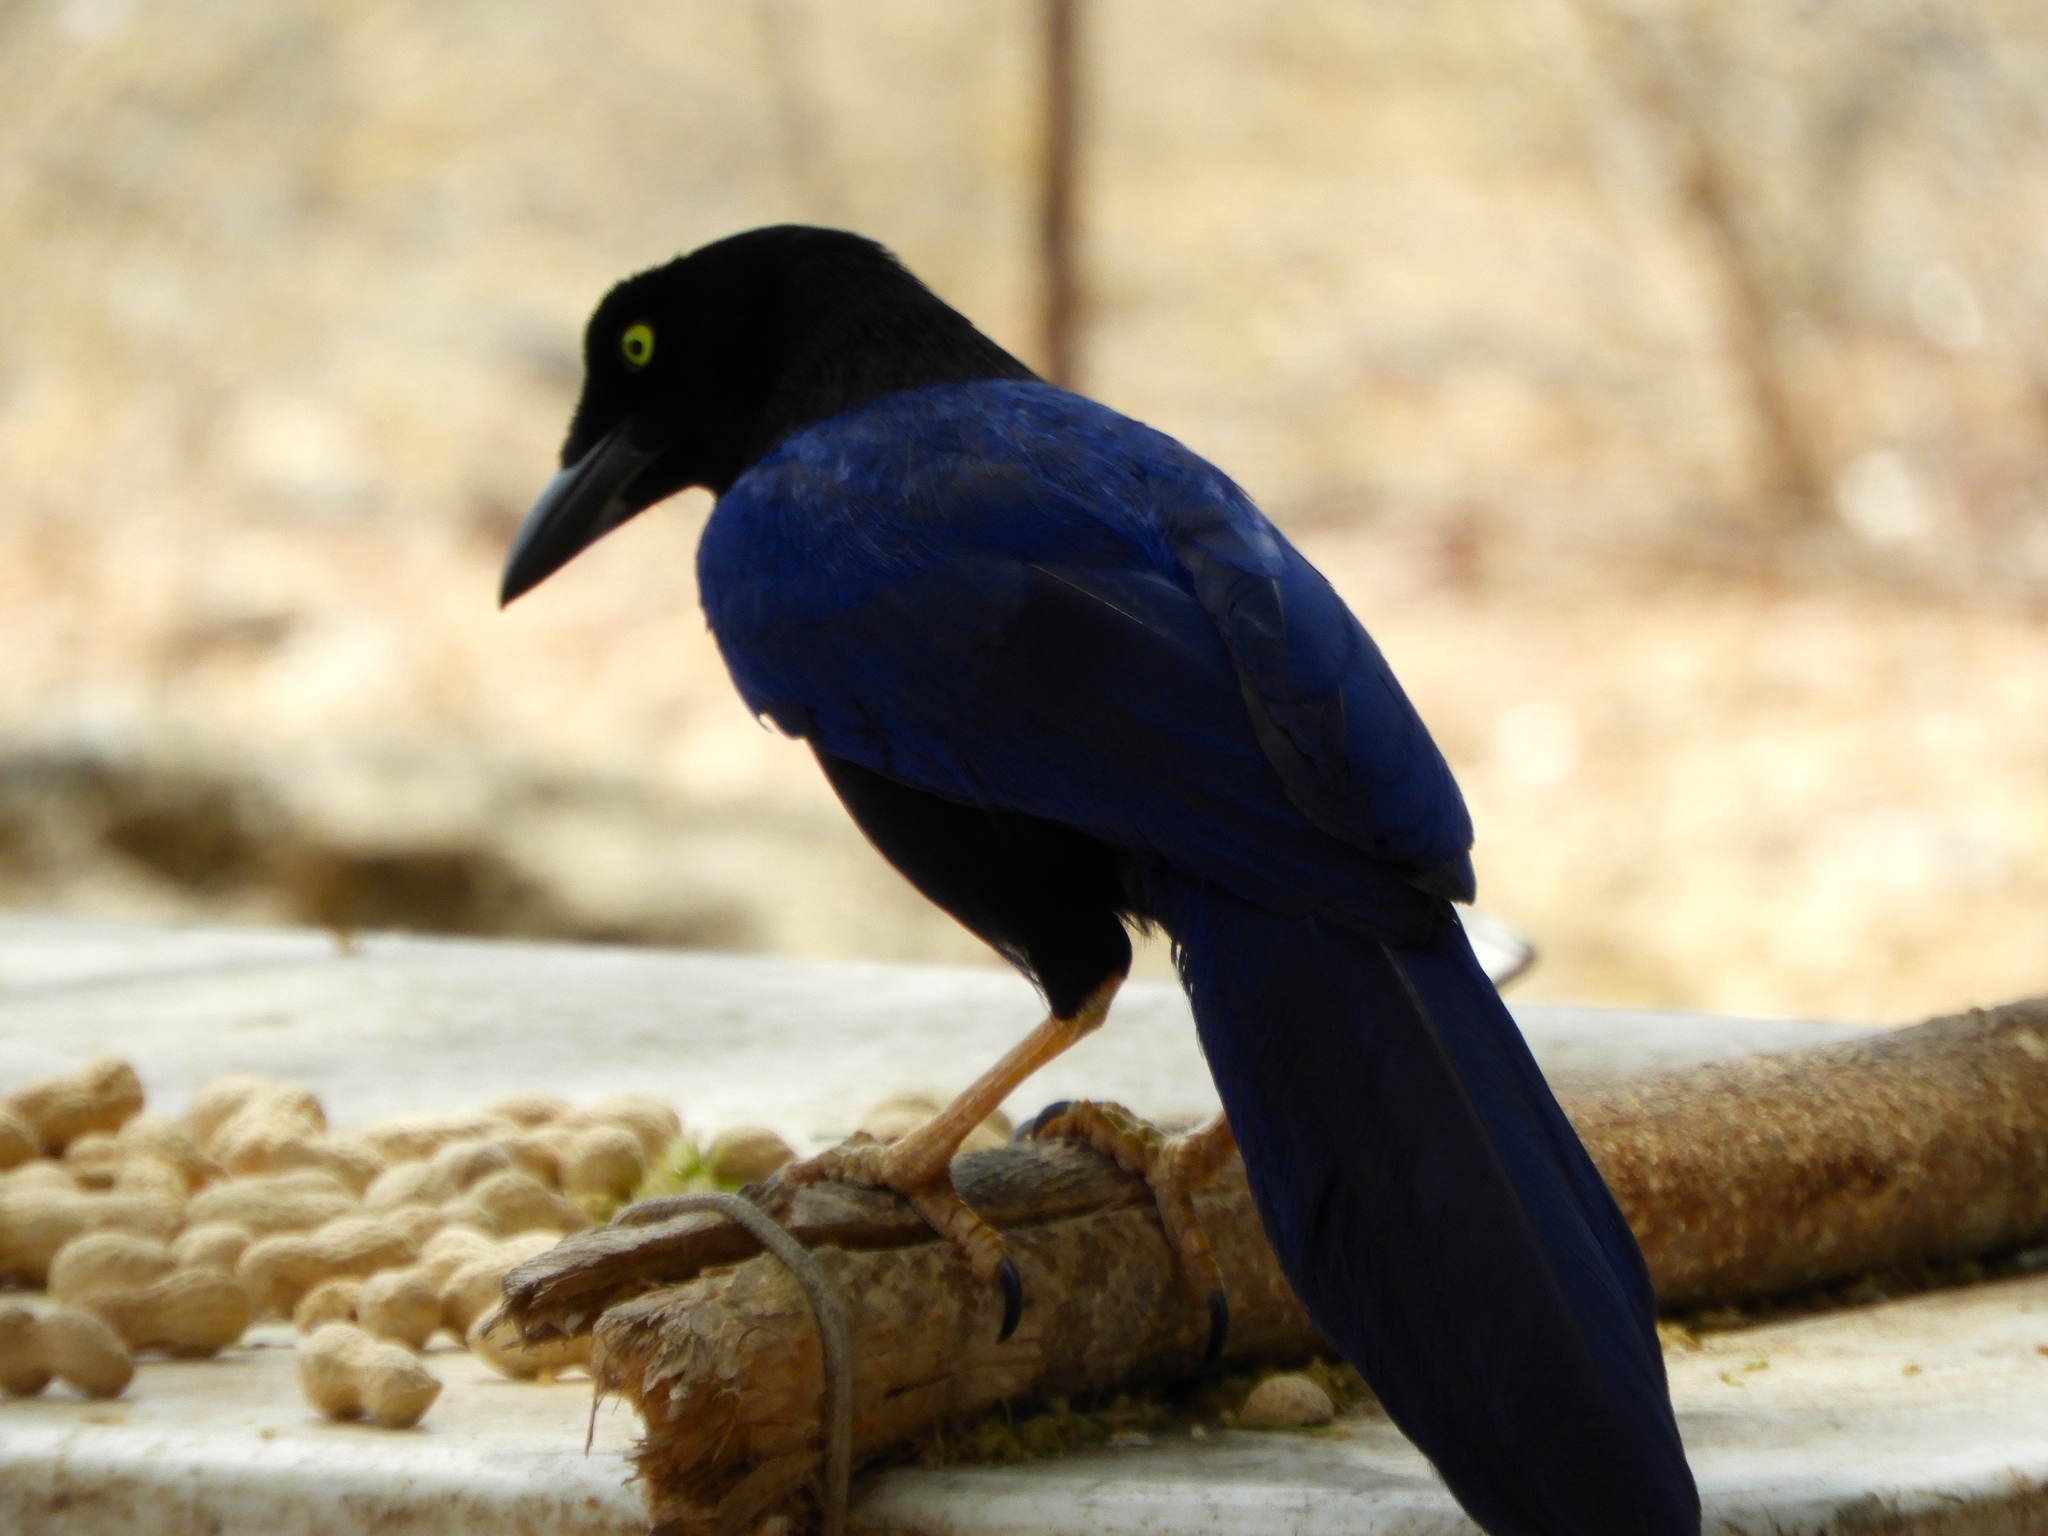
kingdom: Animalia
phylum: Chordata
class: Aves
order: Passeriformes
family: Corvidae
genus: Cyanocorax
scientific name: Cyanocorax beecheii
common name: Purplish-backed jay
